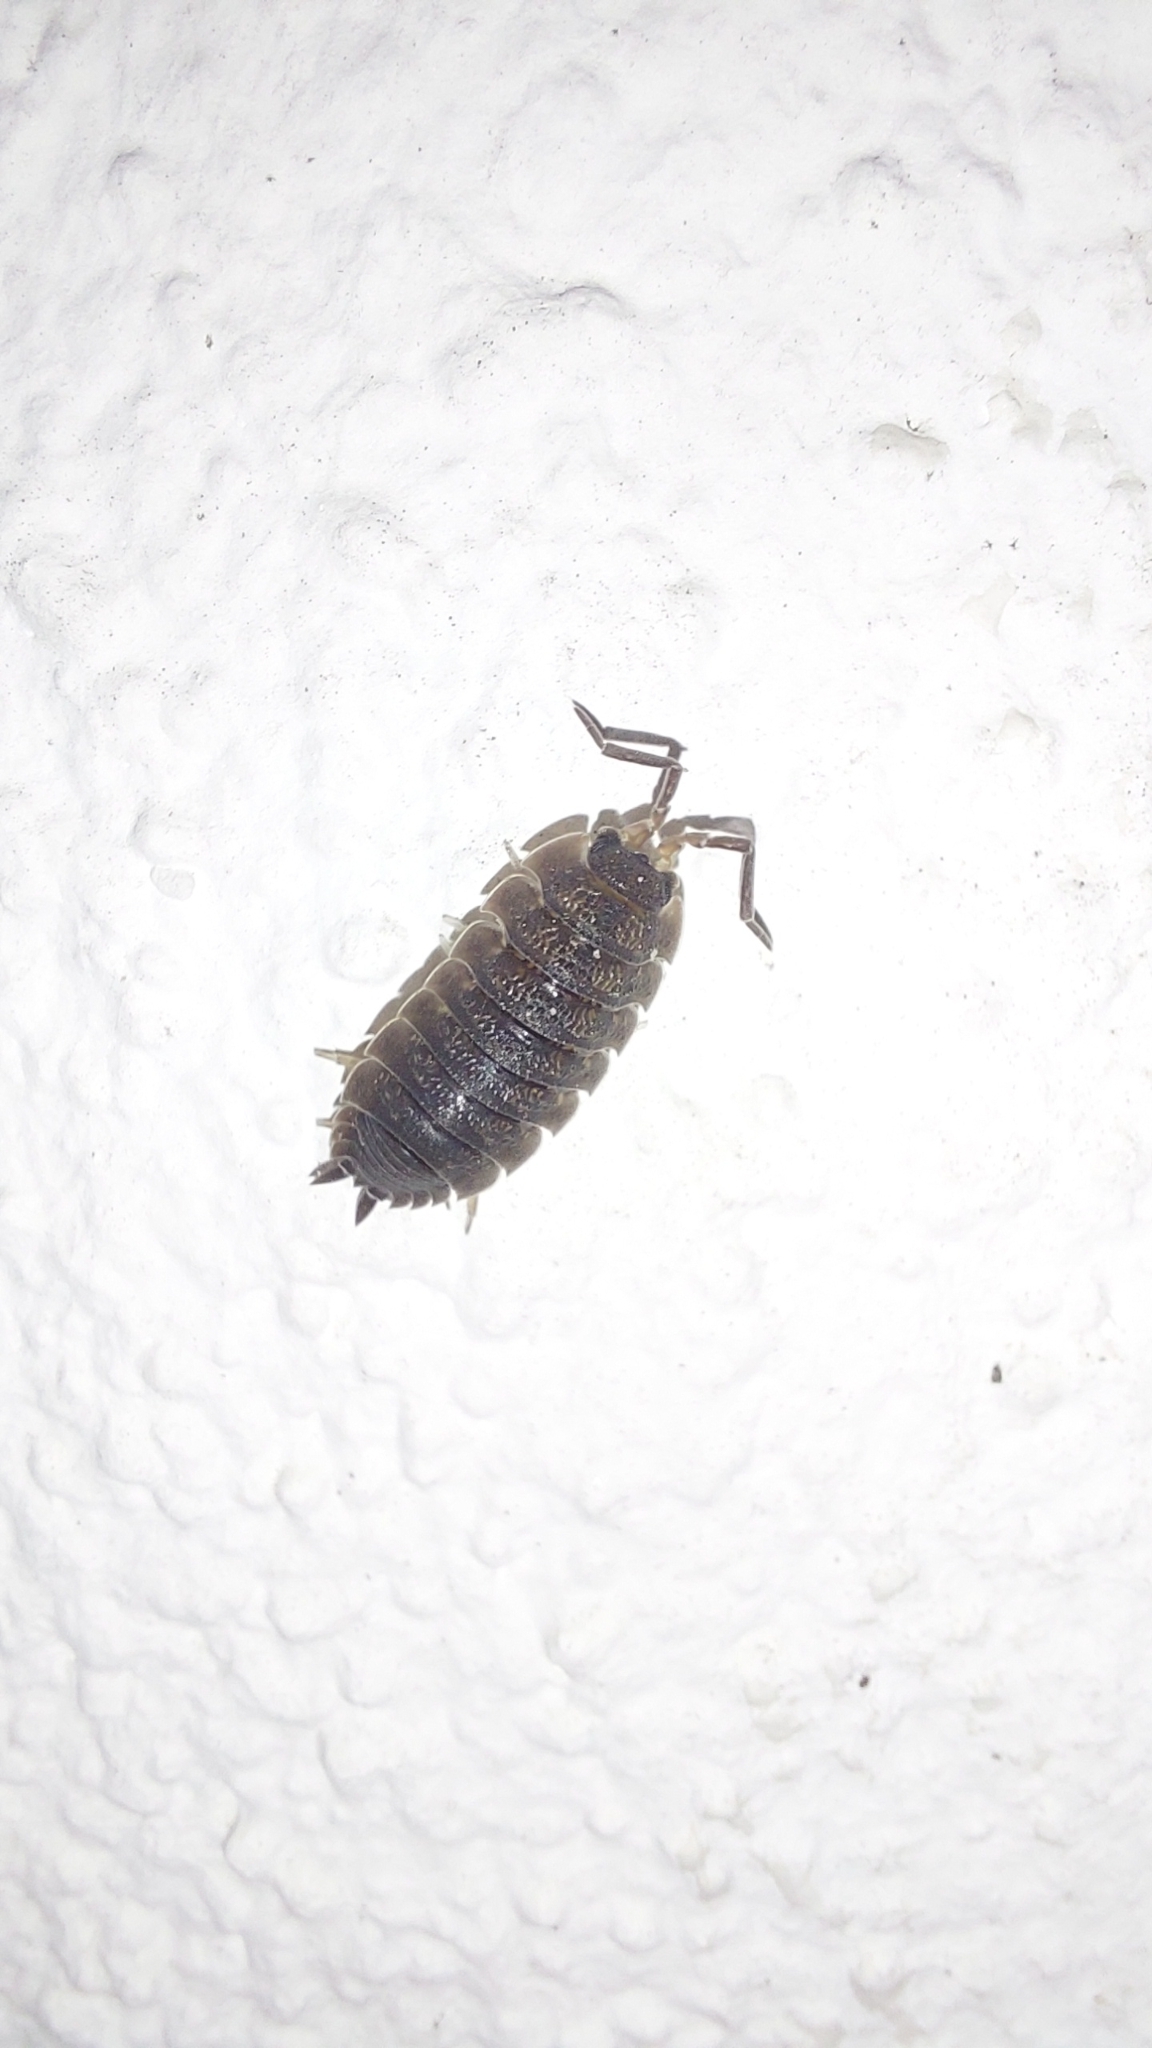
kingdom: Animalia
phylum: Arthropoda
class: Malacostraca
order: Isopoda
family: Porcellionidae
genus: Porcellio
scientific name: Porcellio scaber
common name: Common rough woodlouse
